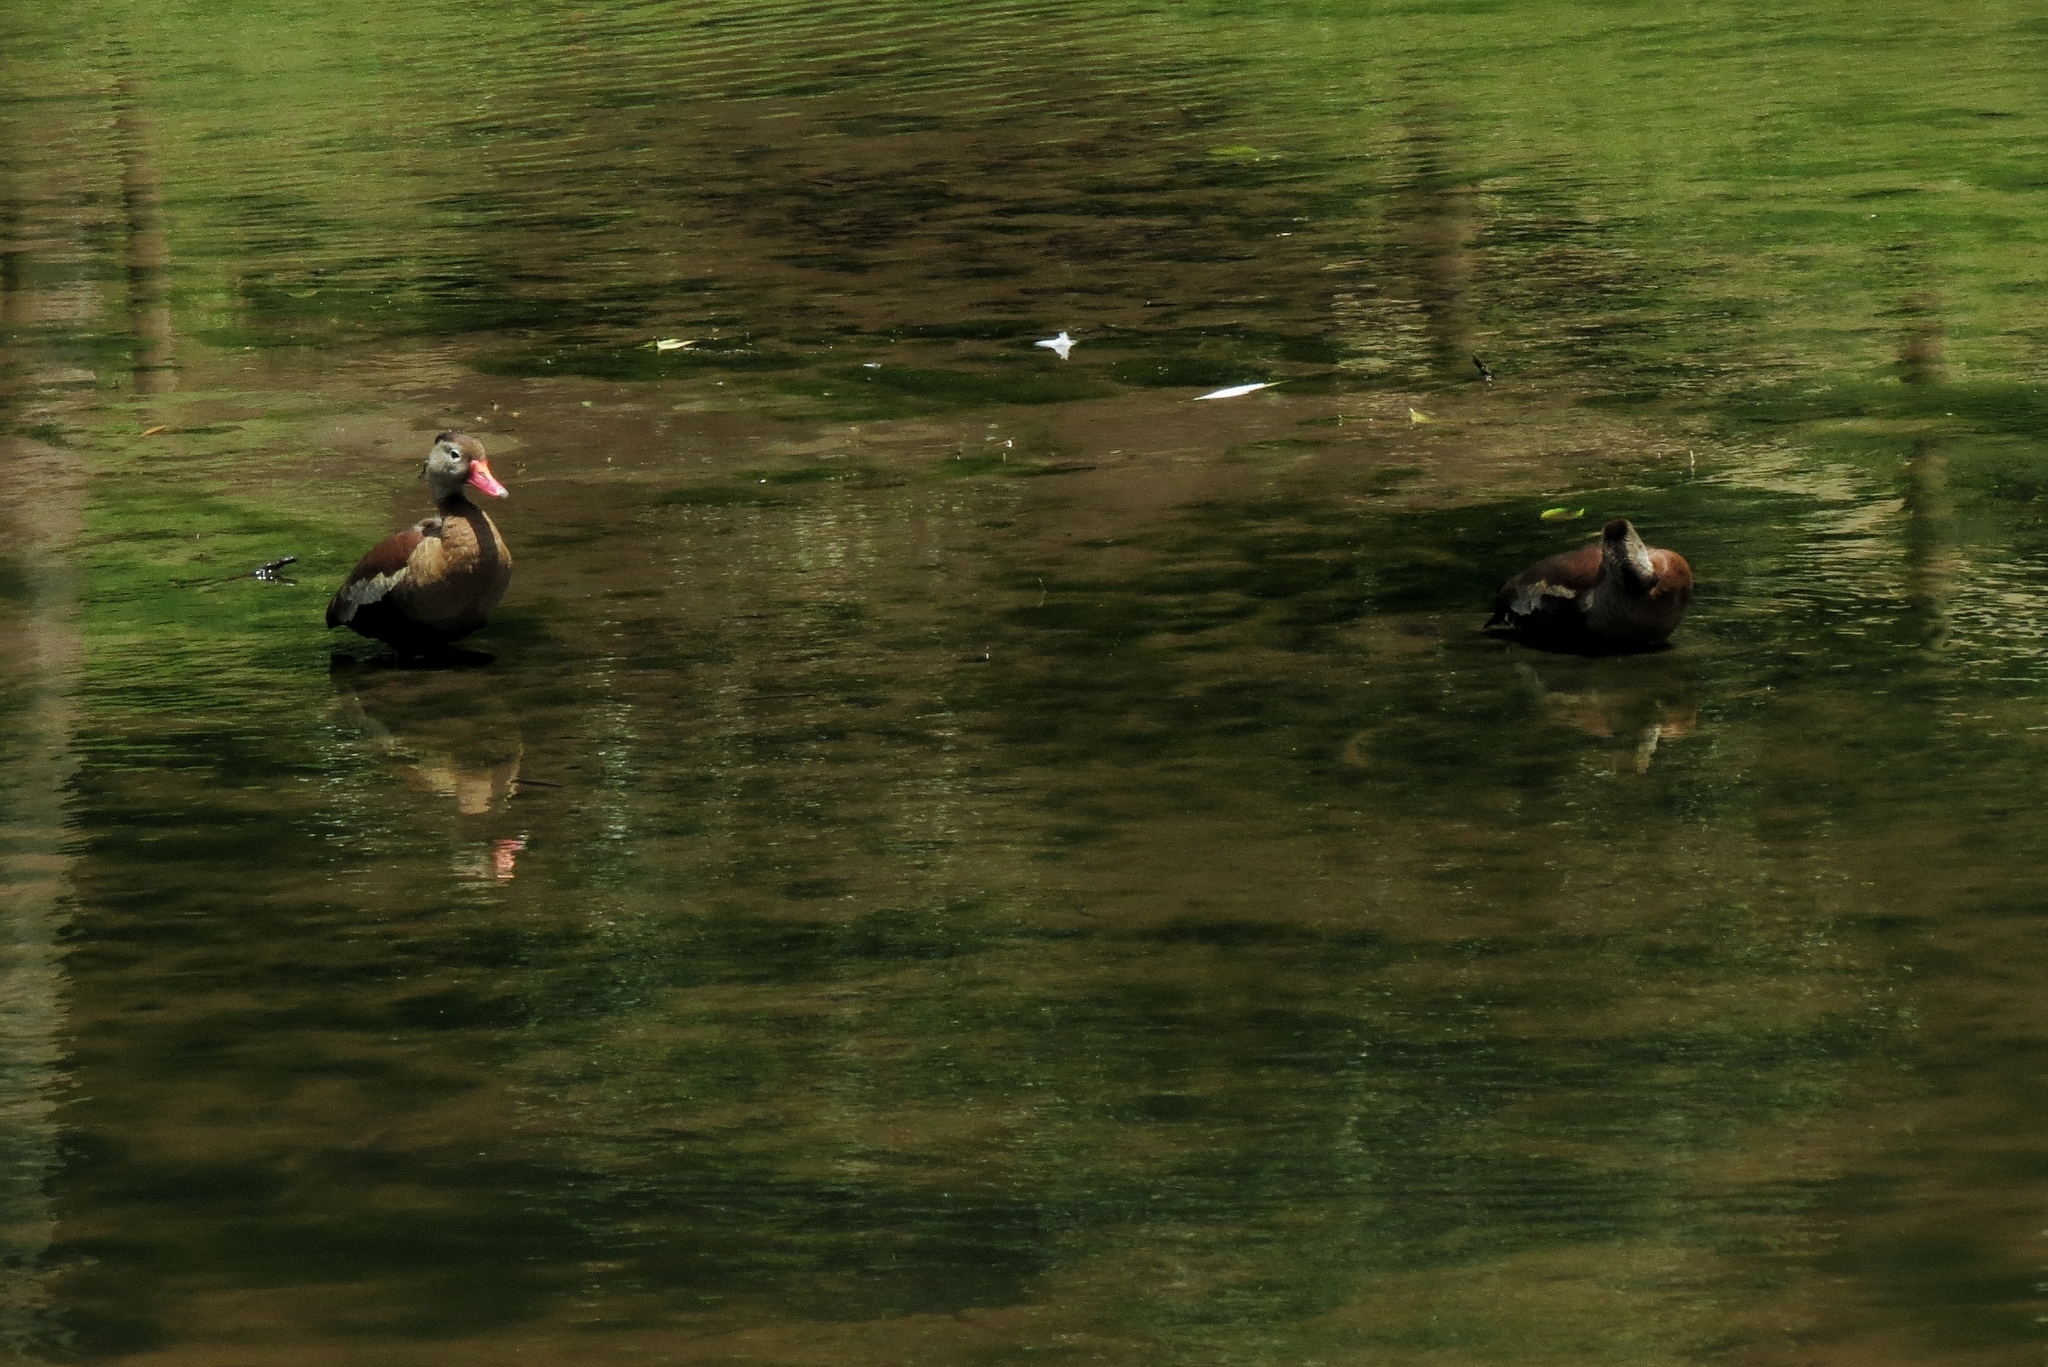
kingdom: Animalia
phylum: Chordata
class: Aves
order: Anseriformes
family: Anatidae
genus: Dendrocygna
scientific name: Dendrocygna autumnalis
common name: Black-bellied whistling duck
